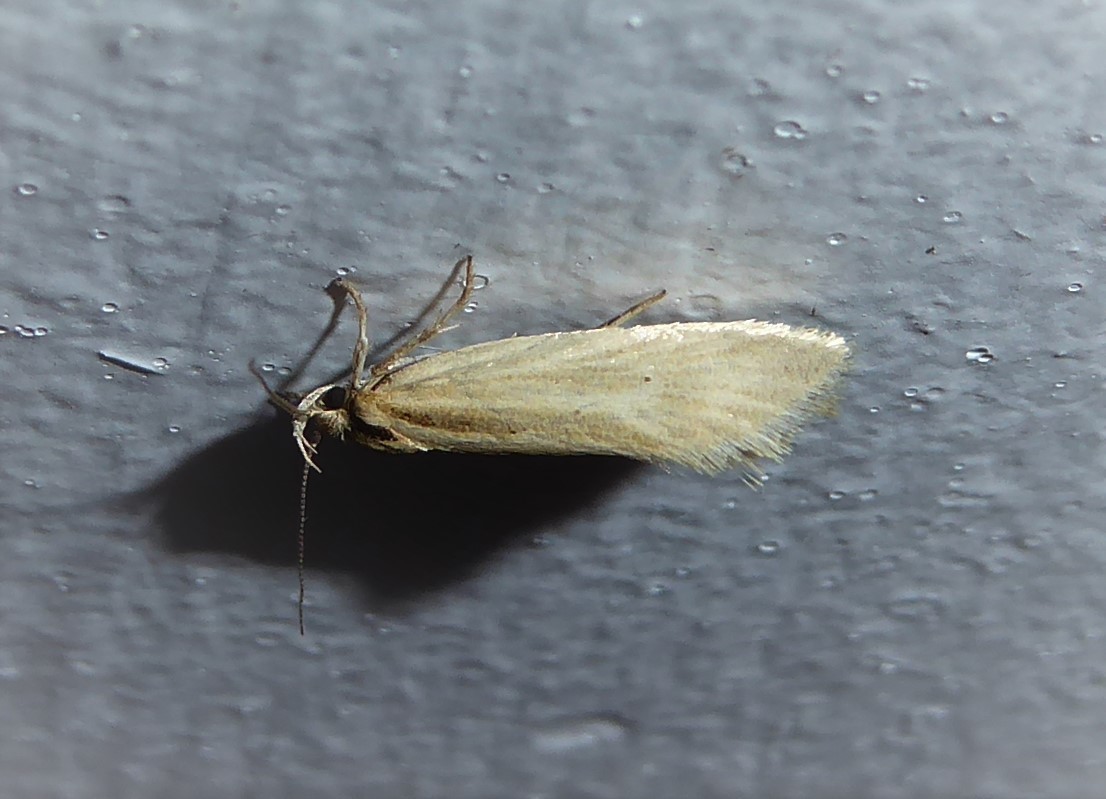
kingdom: Animalia
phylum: Arthropoda
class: Insecta
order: Lepidoptera
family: Oecophoridae
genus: Tingena
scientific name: Tingena chloradelpha
